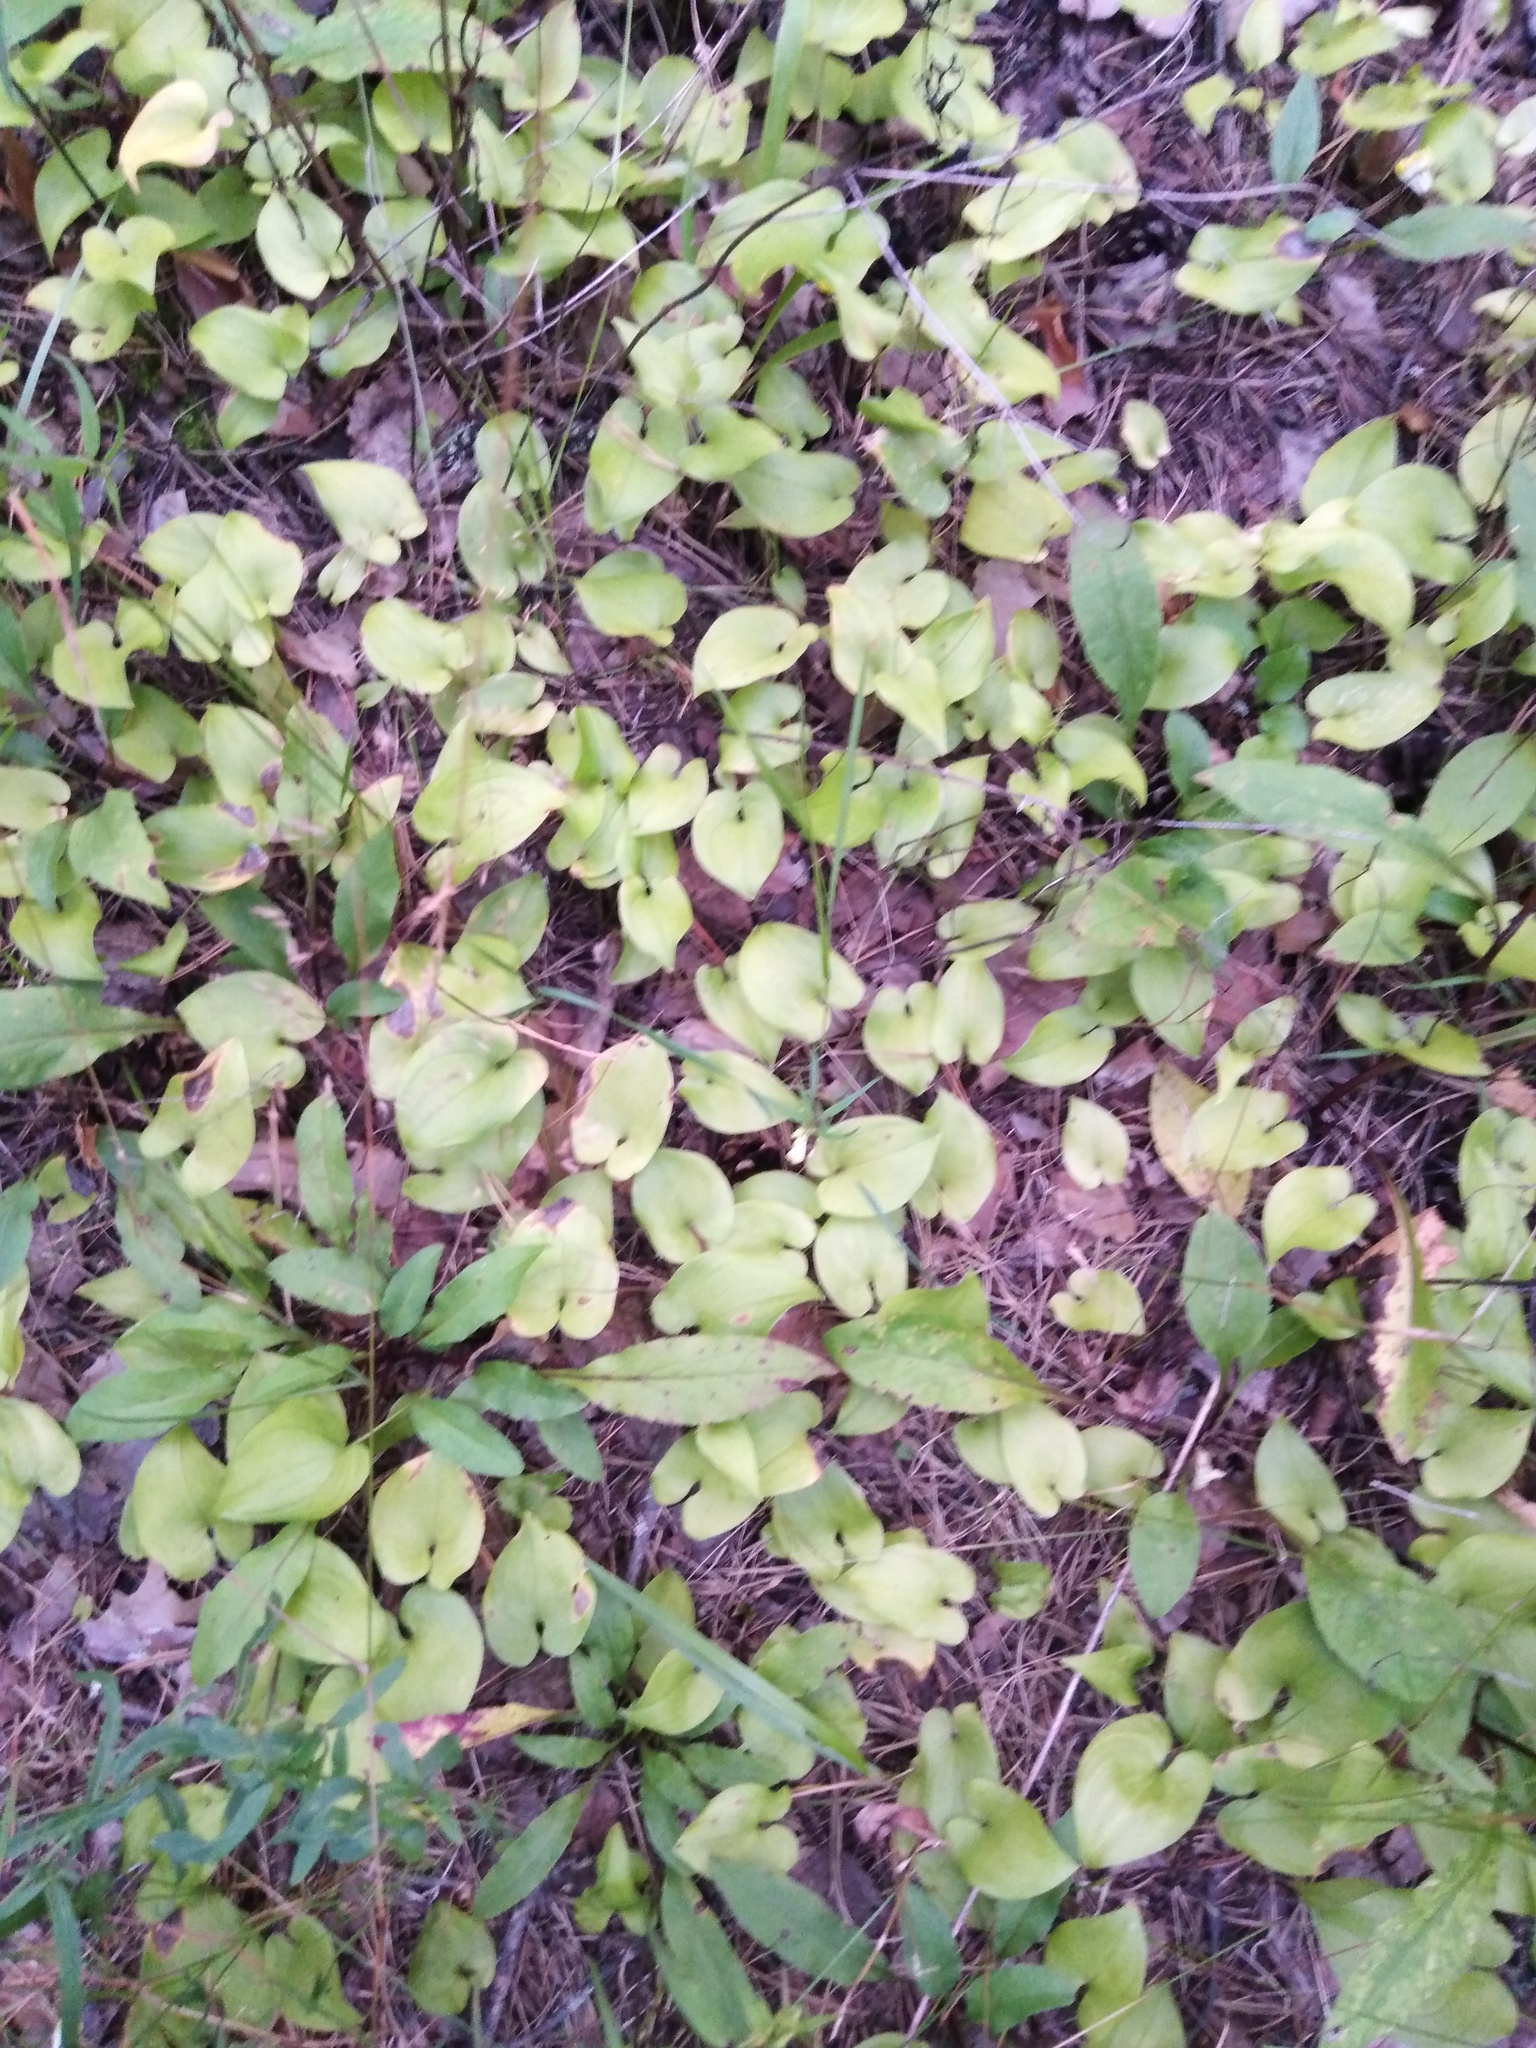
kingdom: Plantae
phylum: Tracheophyta
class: Liliopsida
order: Asparagales
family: Asparagaceae
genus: Maianthemum
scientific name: Maianthemum bifolium
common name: May lily
